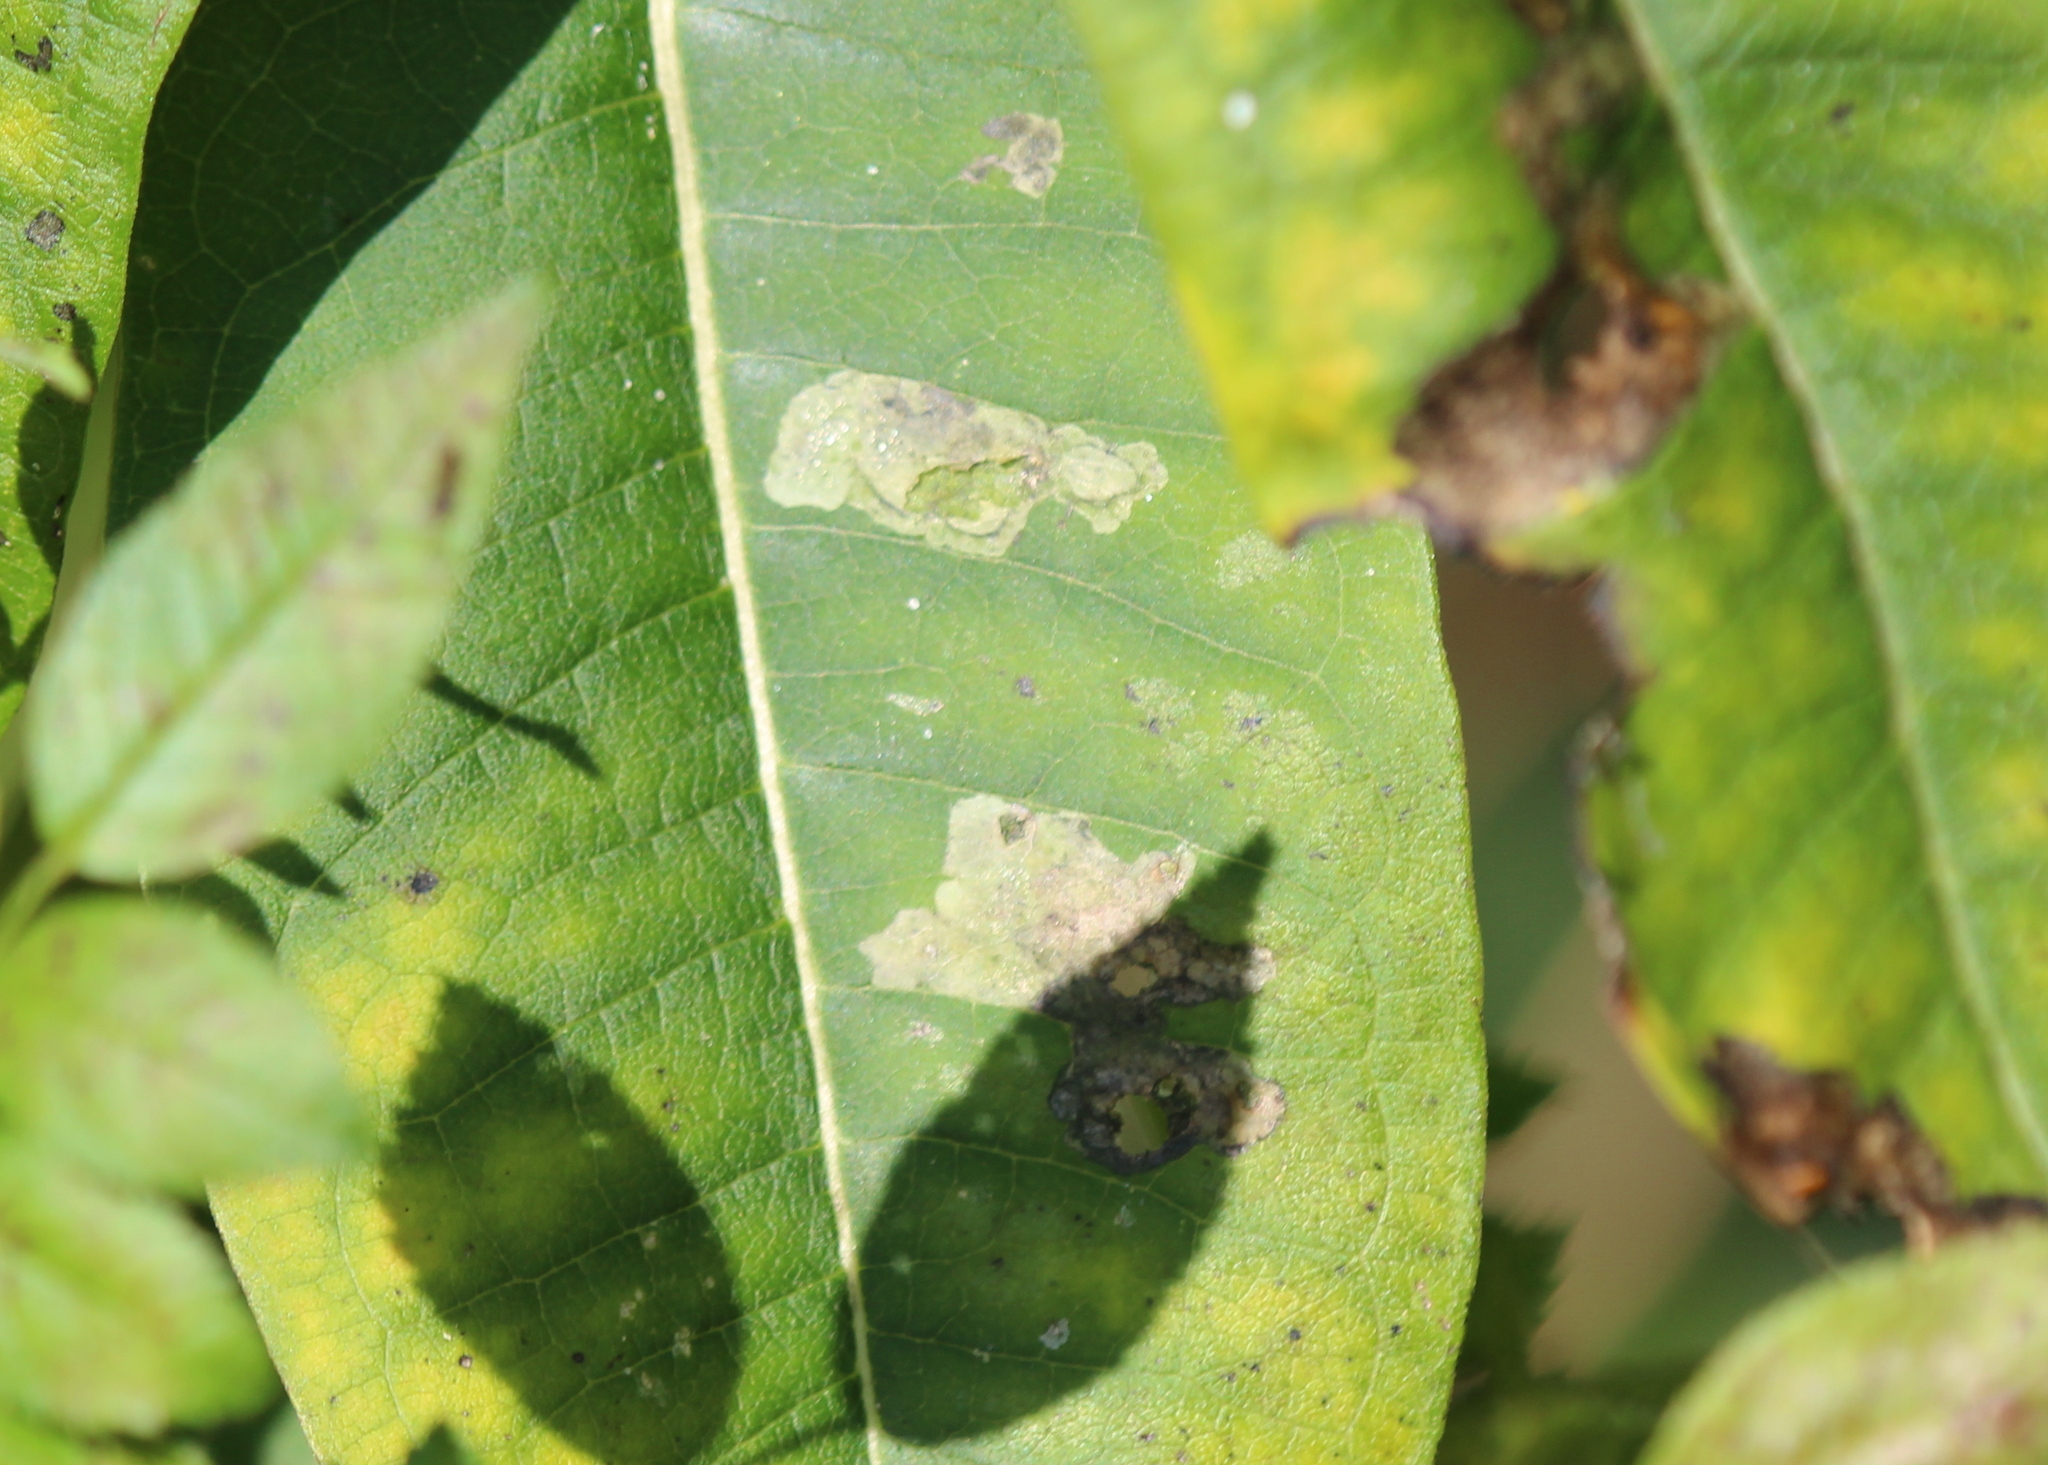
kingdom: Animalia
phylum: Arthropoda
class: Insecta
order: Diptera
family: Agromyzidae
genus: Liriomyza
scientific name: Liriomyza asclepiadis
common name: Milkweed leaf-miner fly
